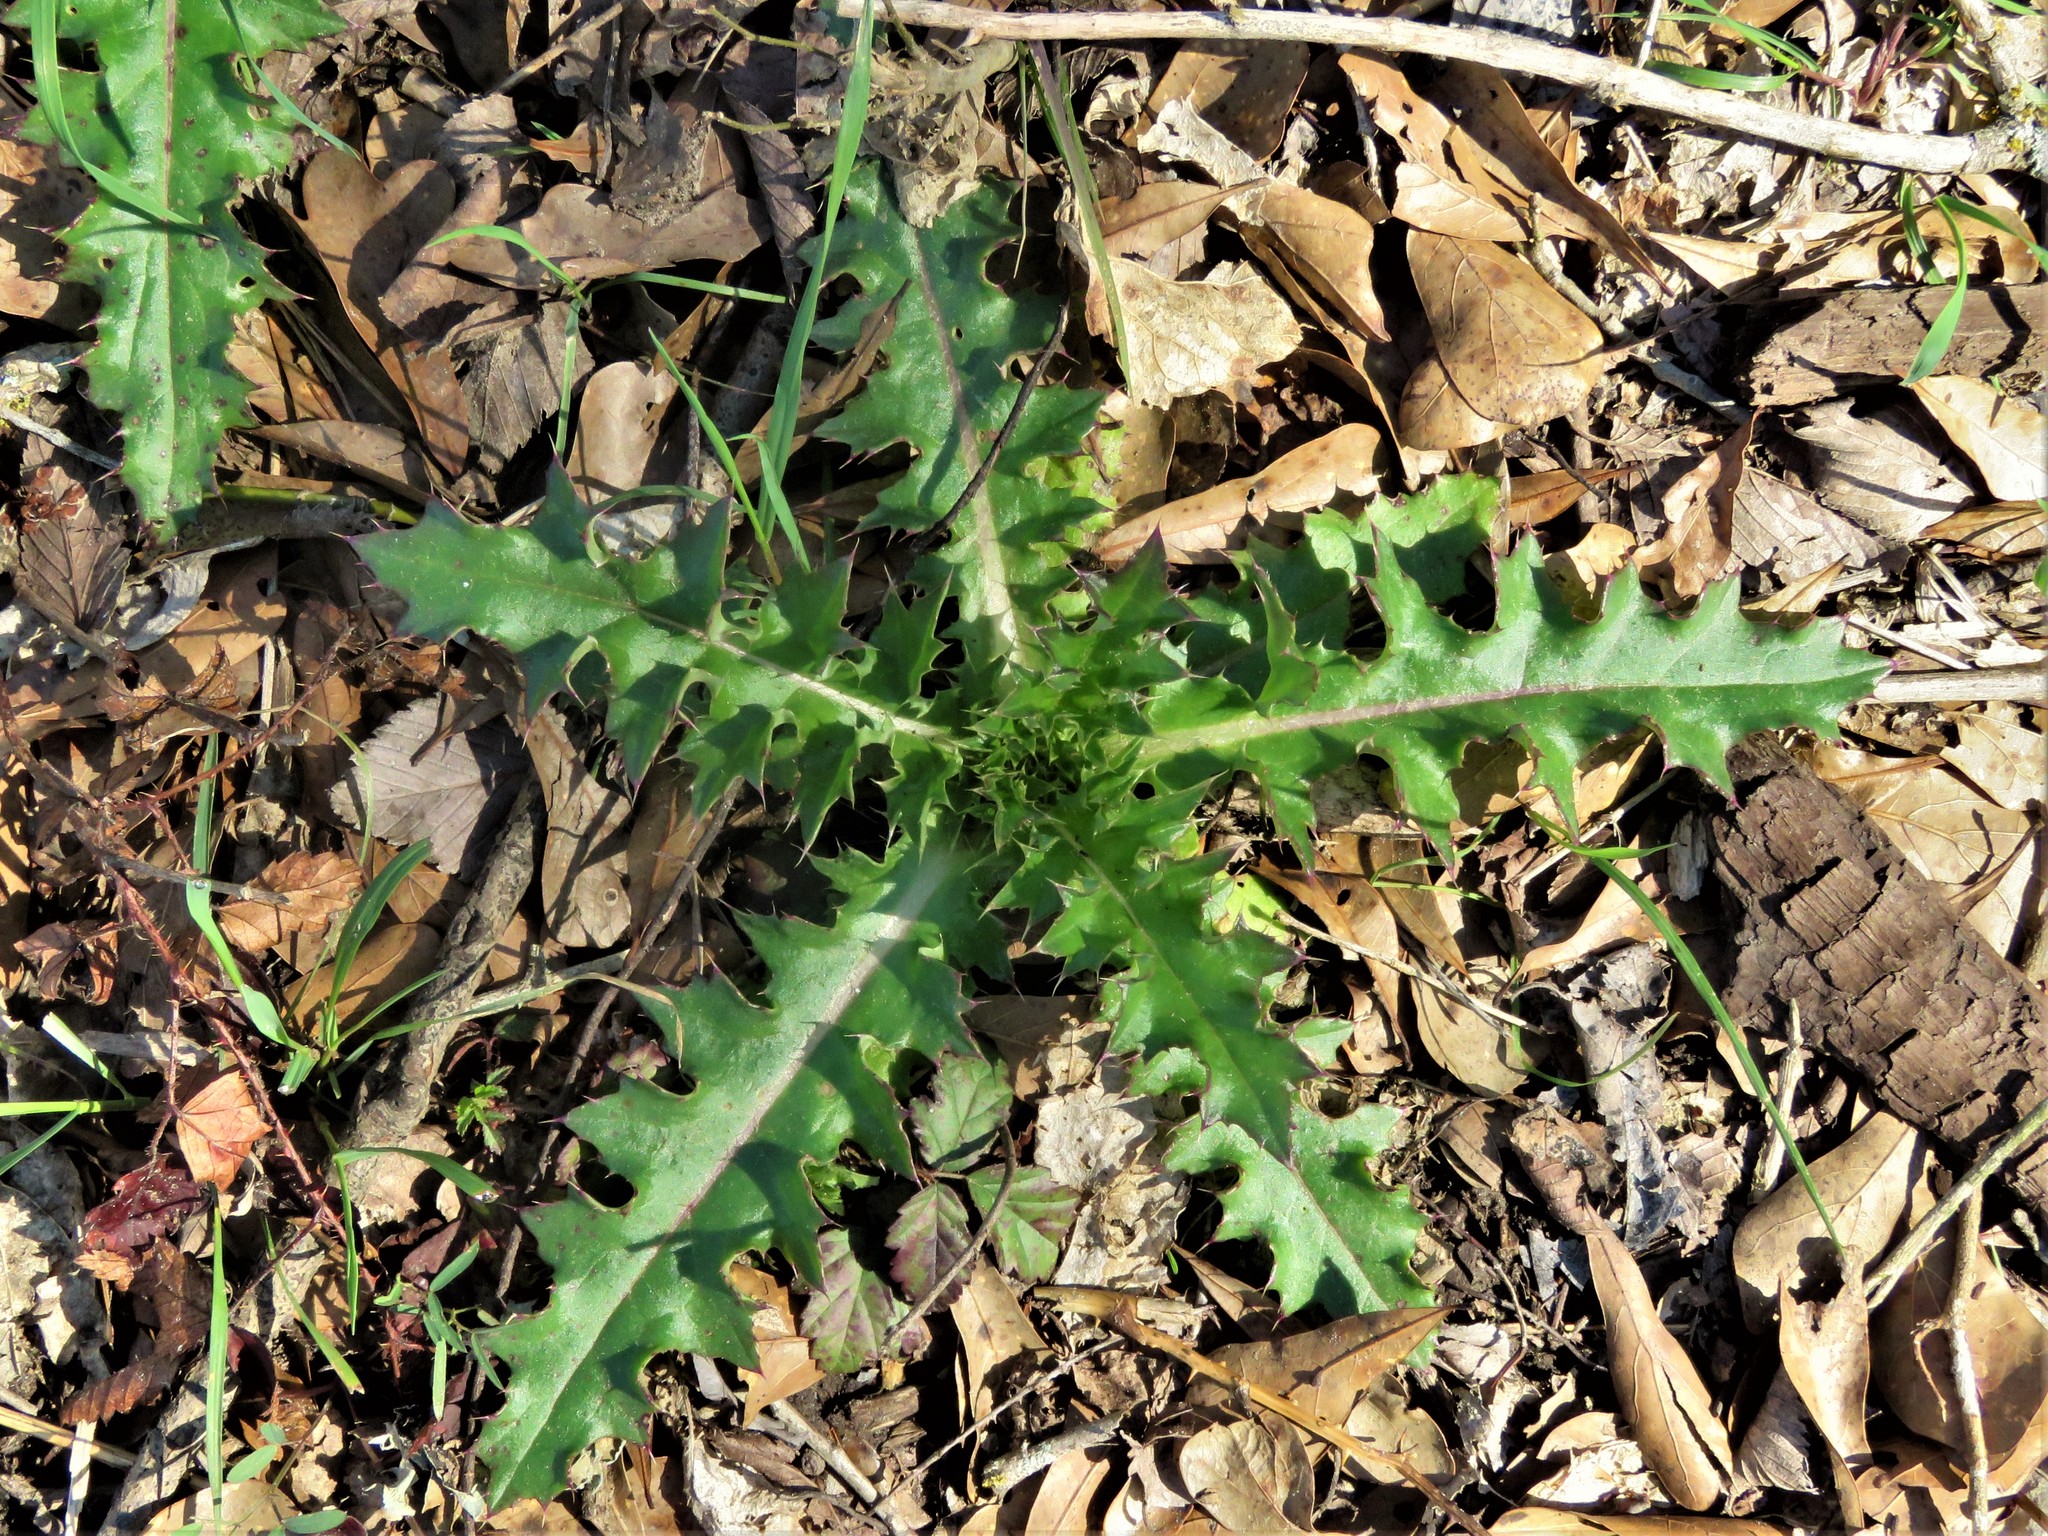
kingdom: Plantae
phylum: Tracheophyta
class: Magnoliopsida
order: Asterales
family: Asteraceae
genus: Cirsium
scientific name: Cirsium horridulum
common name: Bristly thistle
